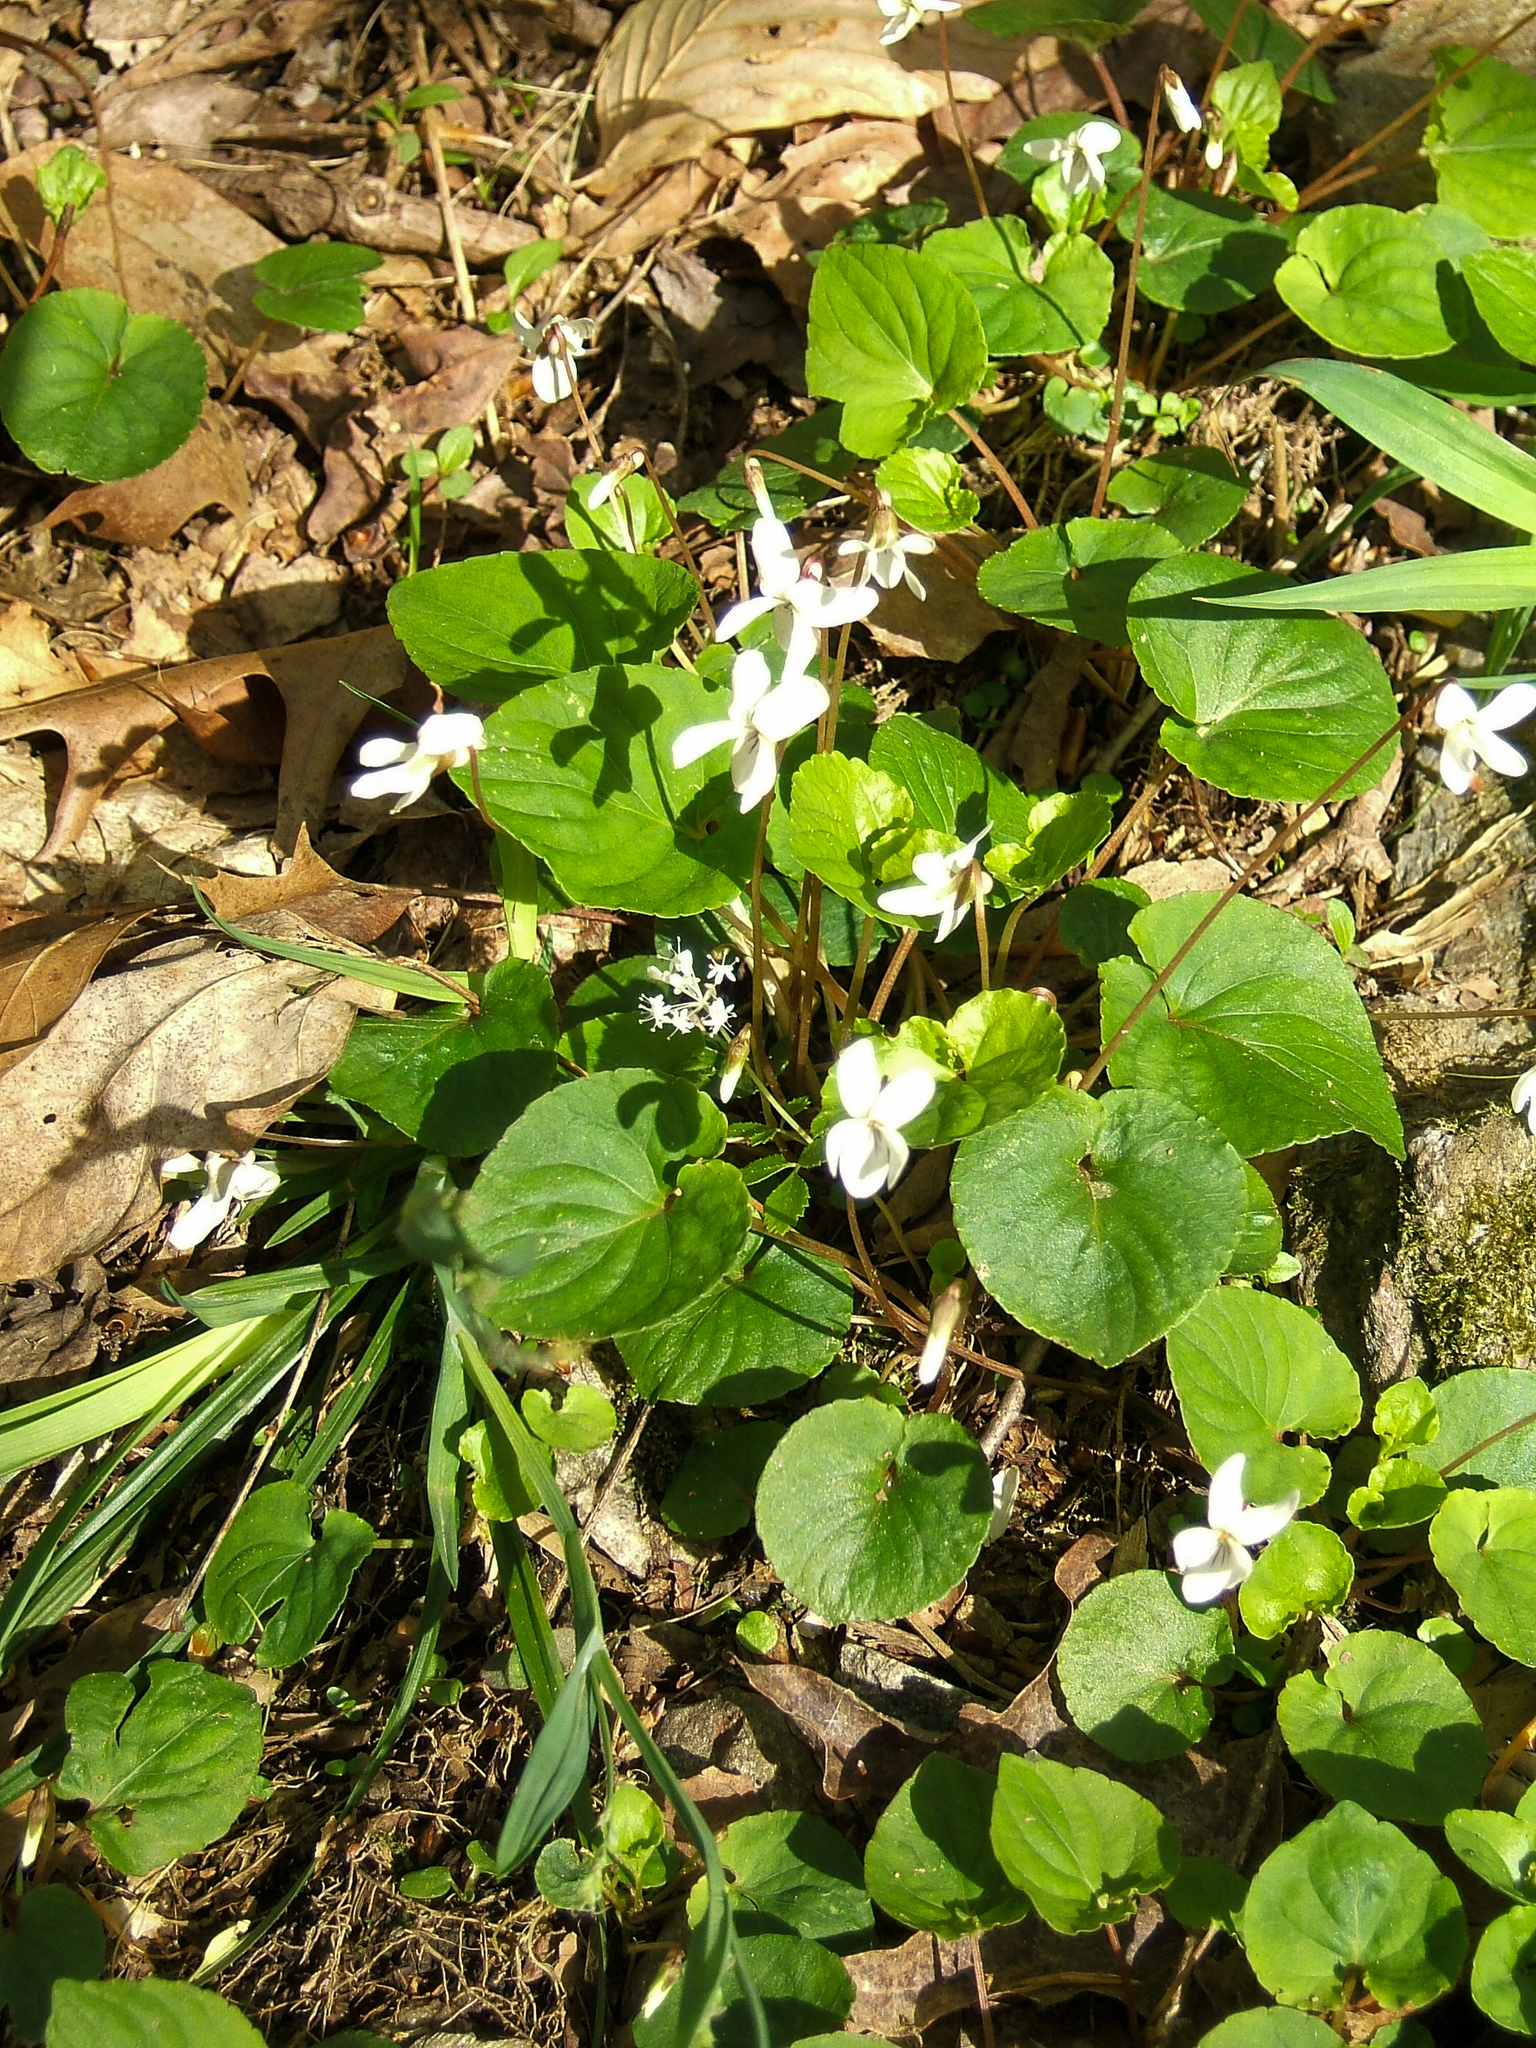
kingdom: Plantae
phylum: Tracheophyta
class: Magnoliopsida
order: Apiales
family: Araliaceae
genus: Panax
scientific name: Panax trifolius
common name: Dwarf ginseng
